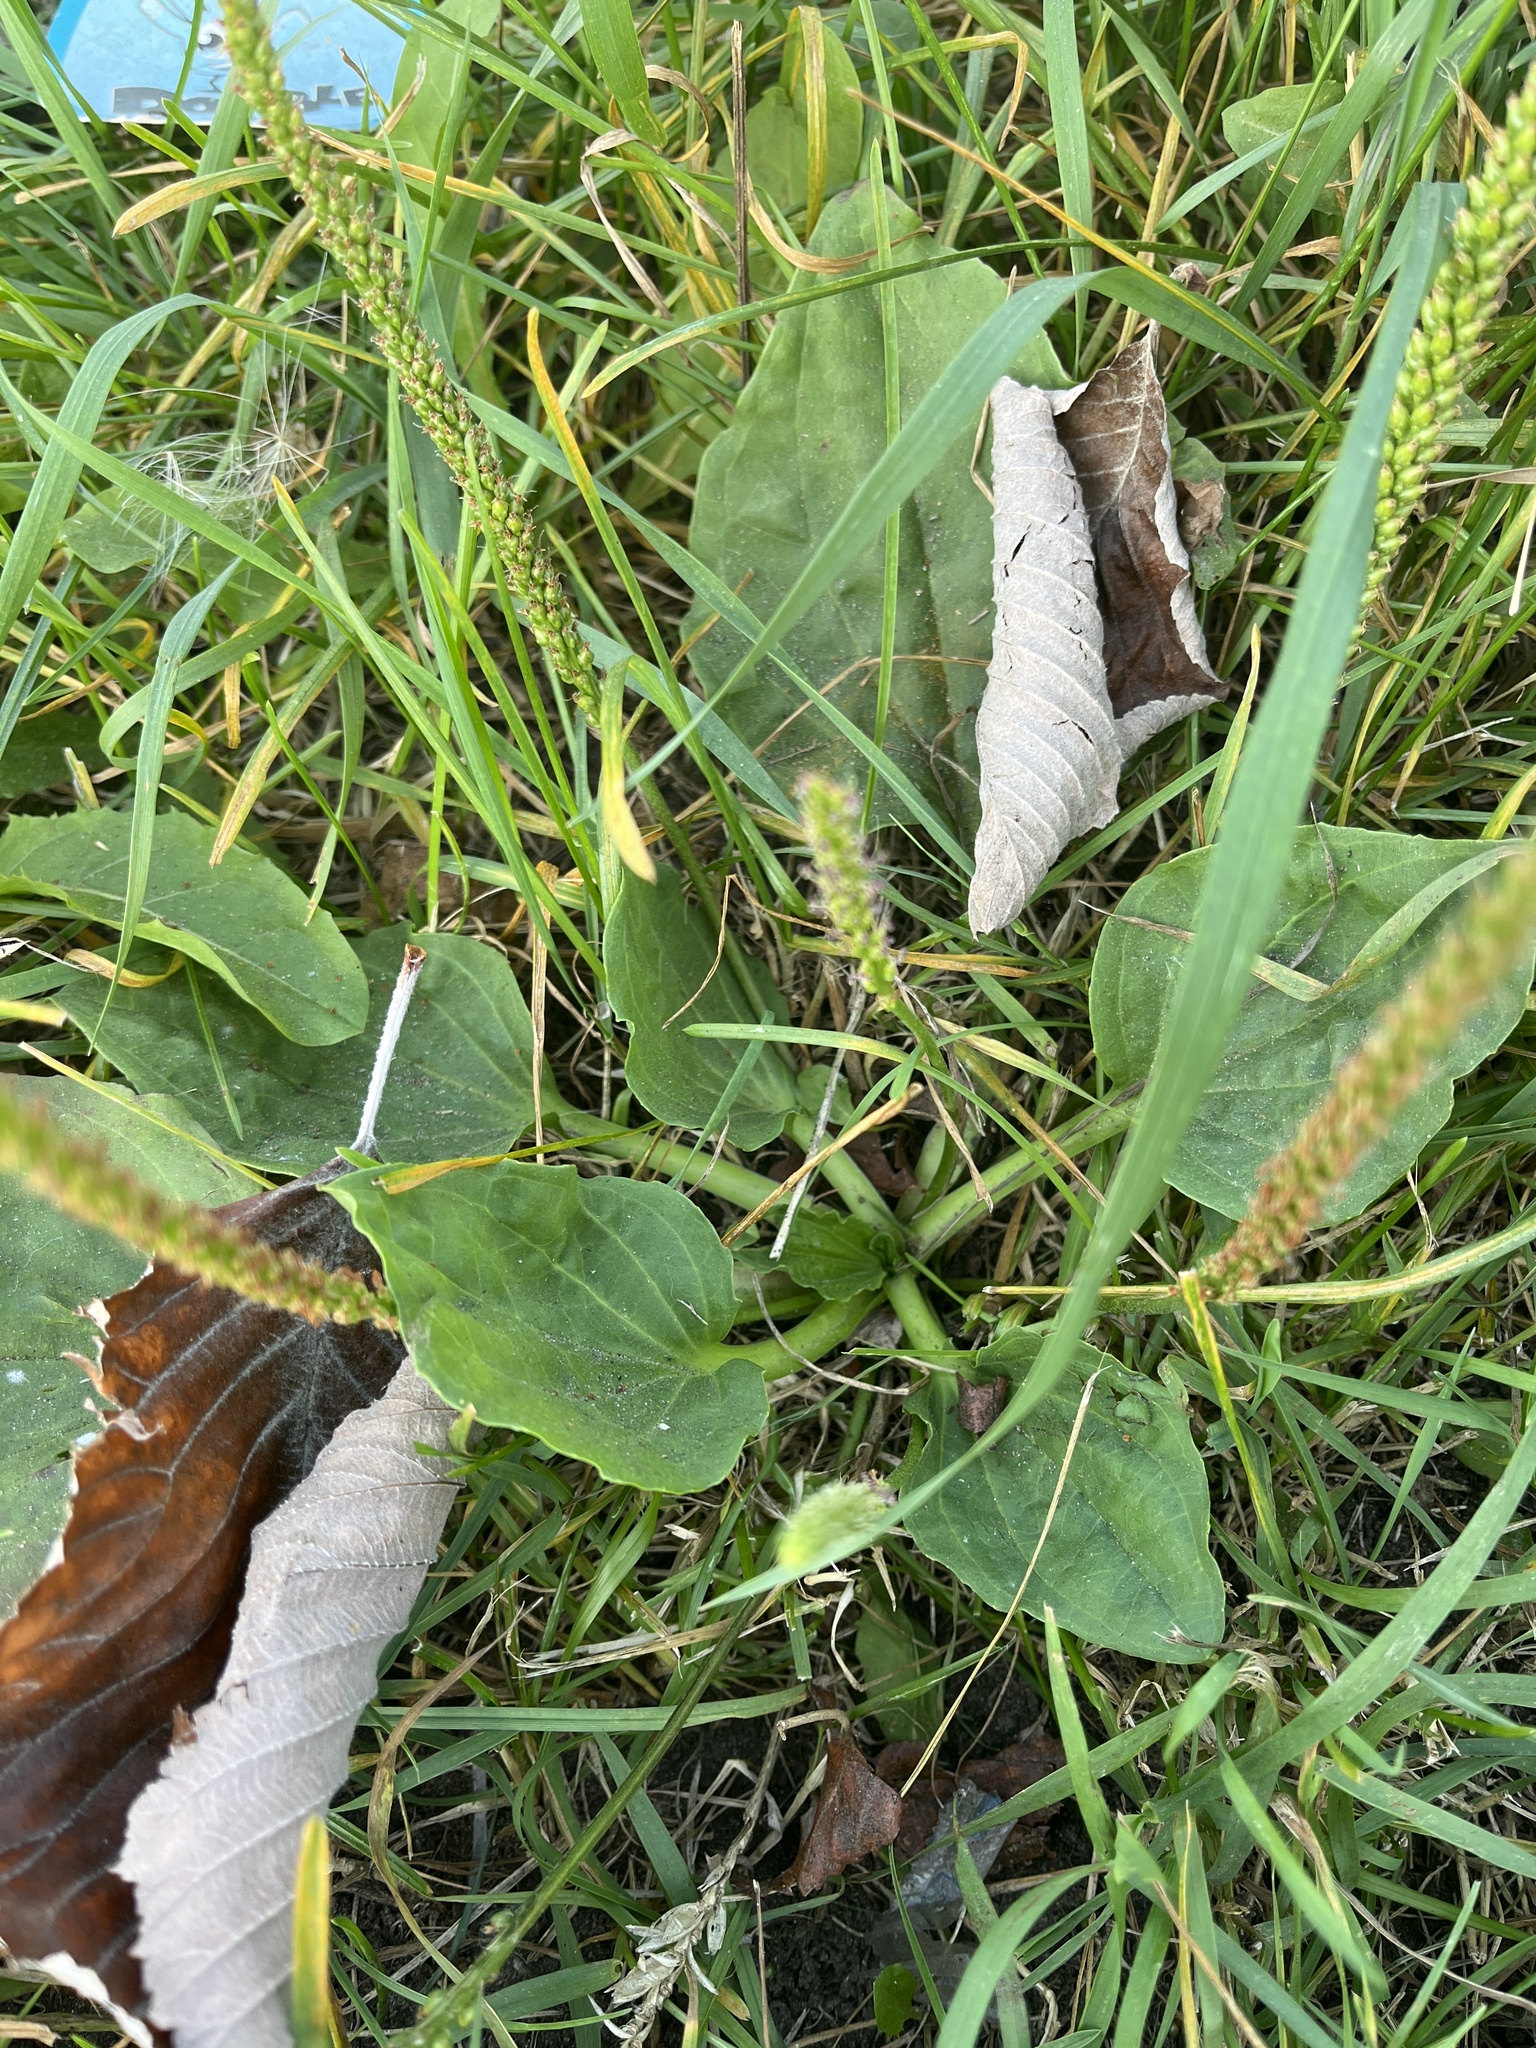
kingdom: Plantae
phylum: Tracheophyta
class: Magnoliopsida
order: Lamiales
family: Plantaginaceae
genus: Plantago
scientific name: Plantago major
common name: Common plantain
